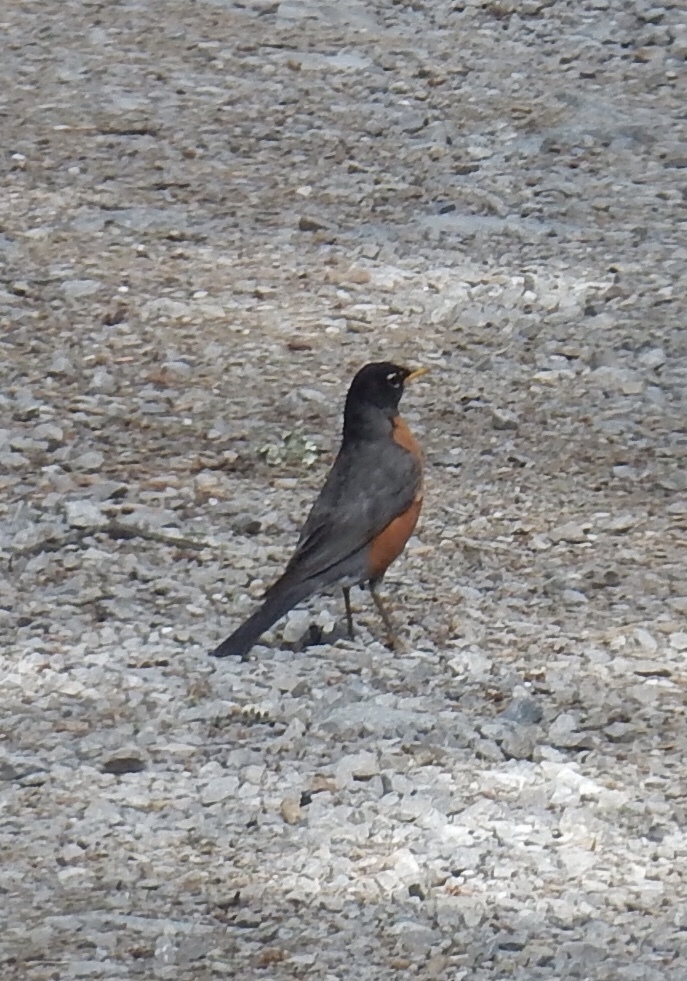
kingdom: Animalia
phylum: Chordata
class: Aves
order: Passeriformes
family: Turdidae
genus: Turdus
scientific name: Turdus migratorius
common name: American robin
